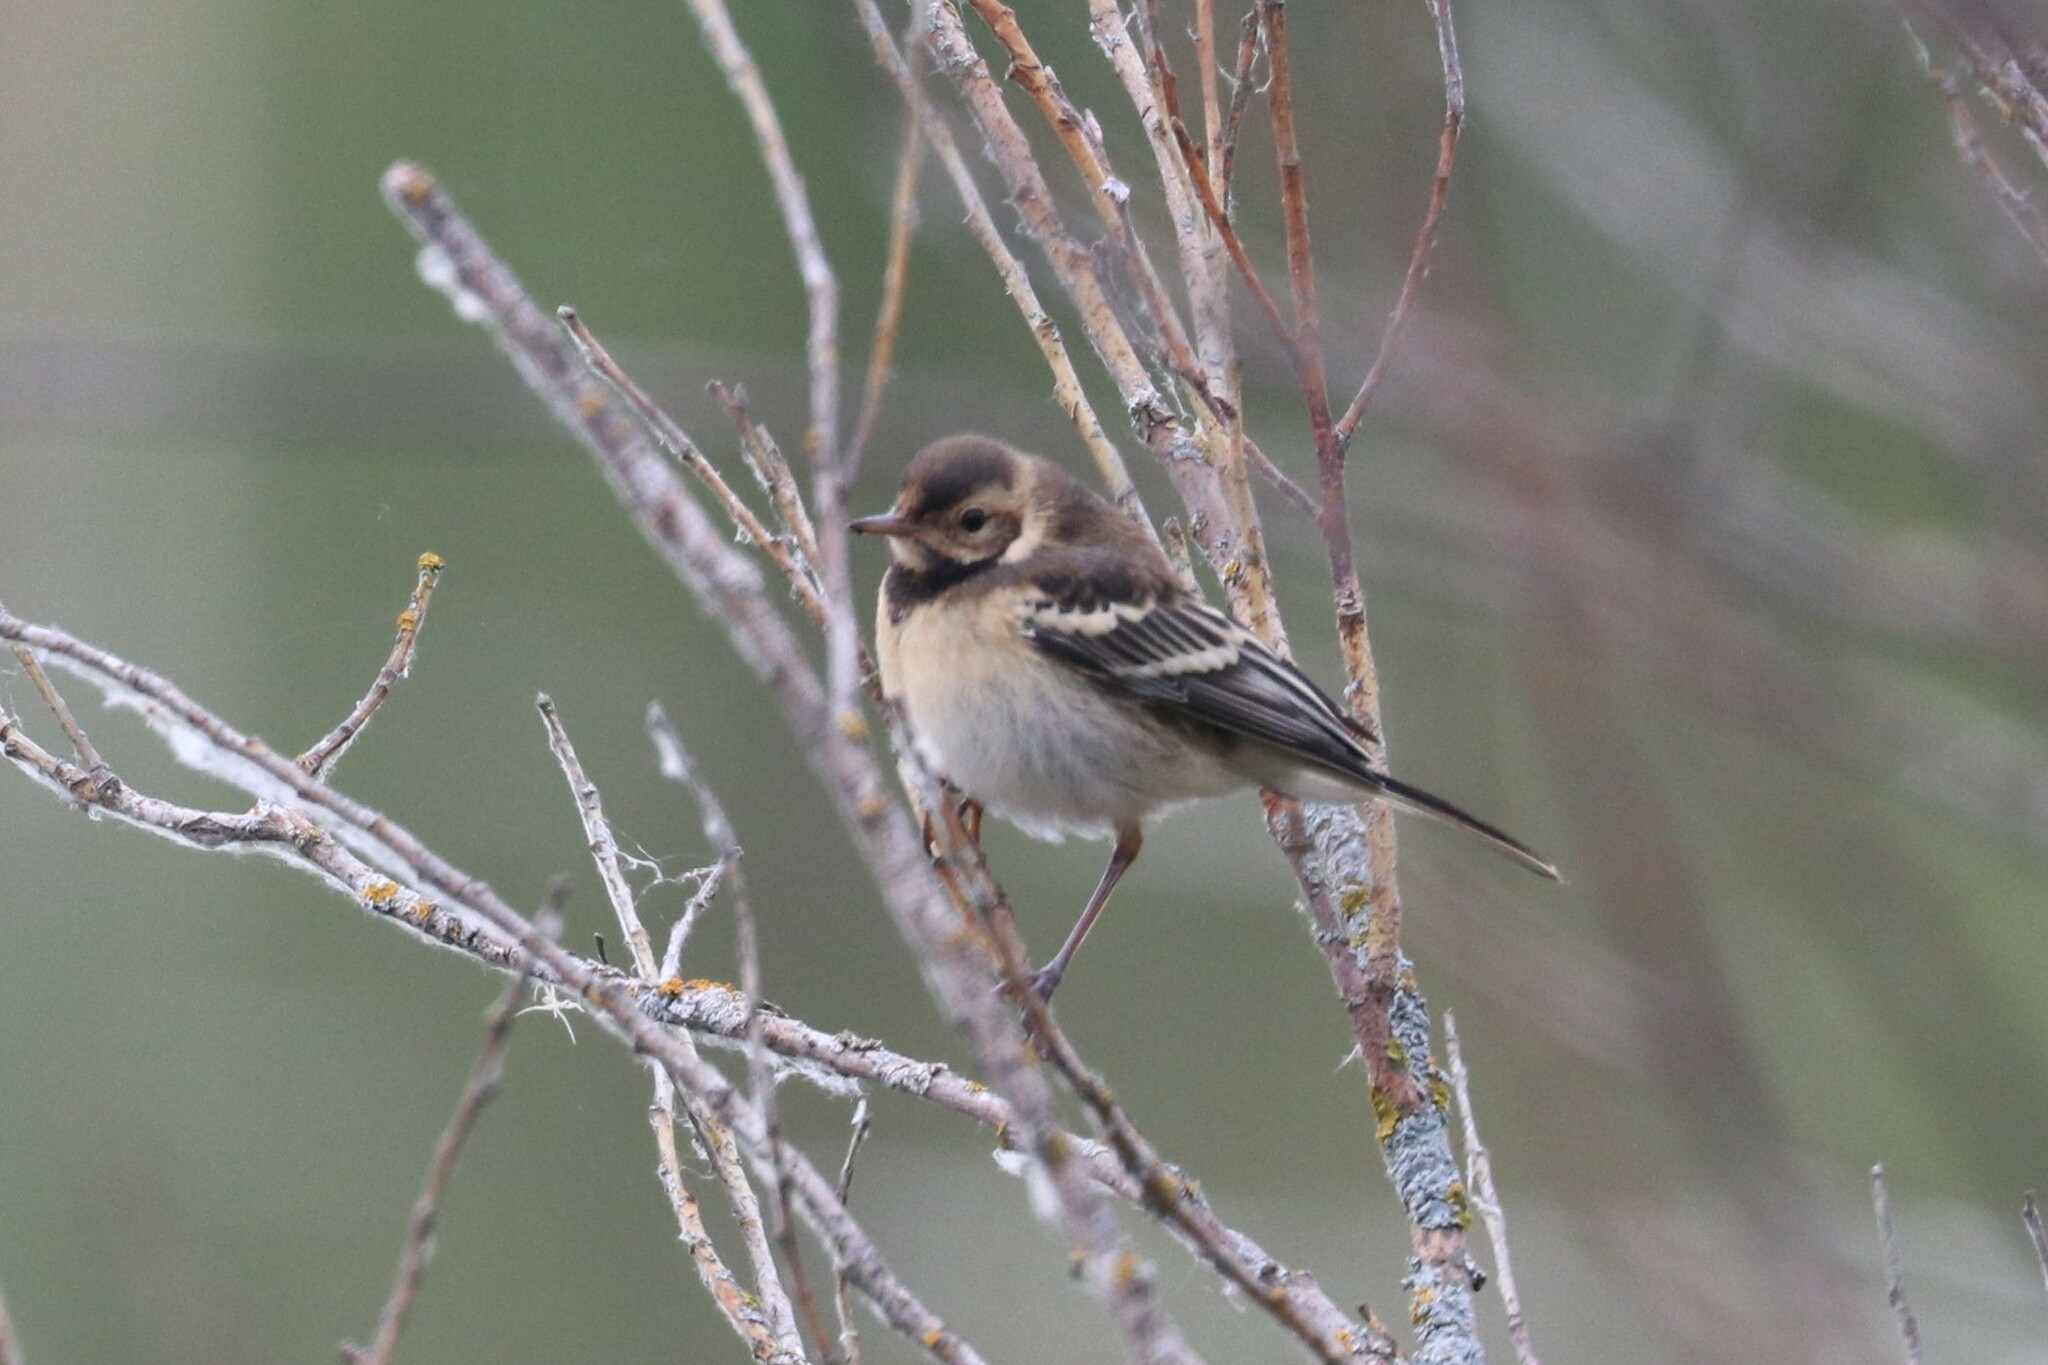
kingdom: Animalia
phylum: Chordata
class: Aves
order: Passeriformes
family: Motacillidae
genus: Motacilla
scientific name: Motacilla citreola
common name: Citrine wagtail
